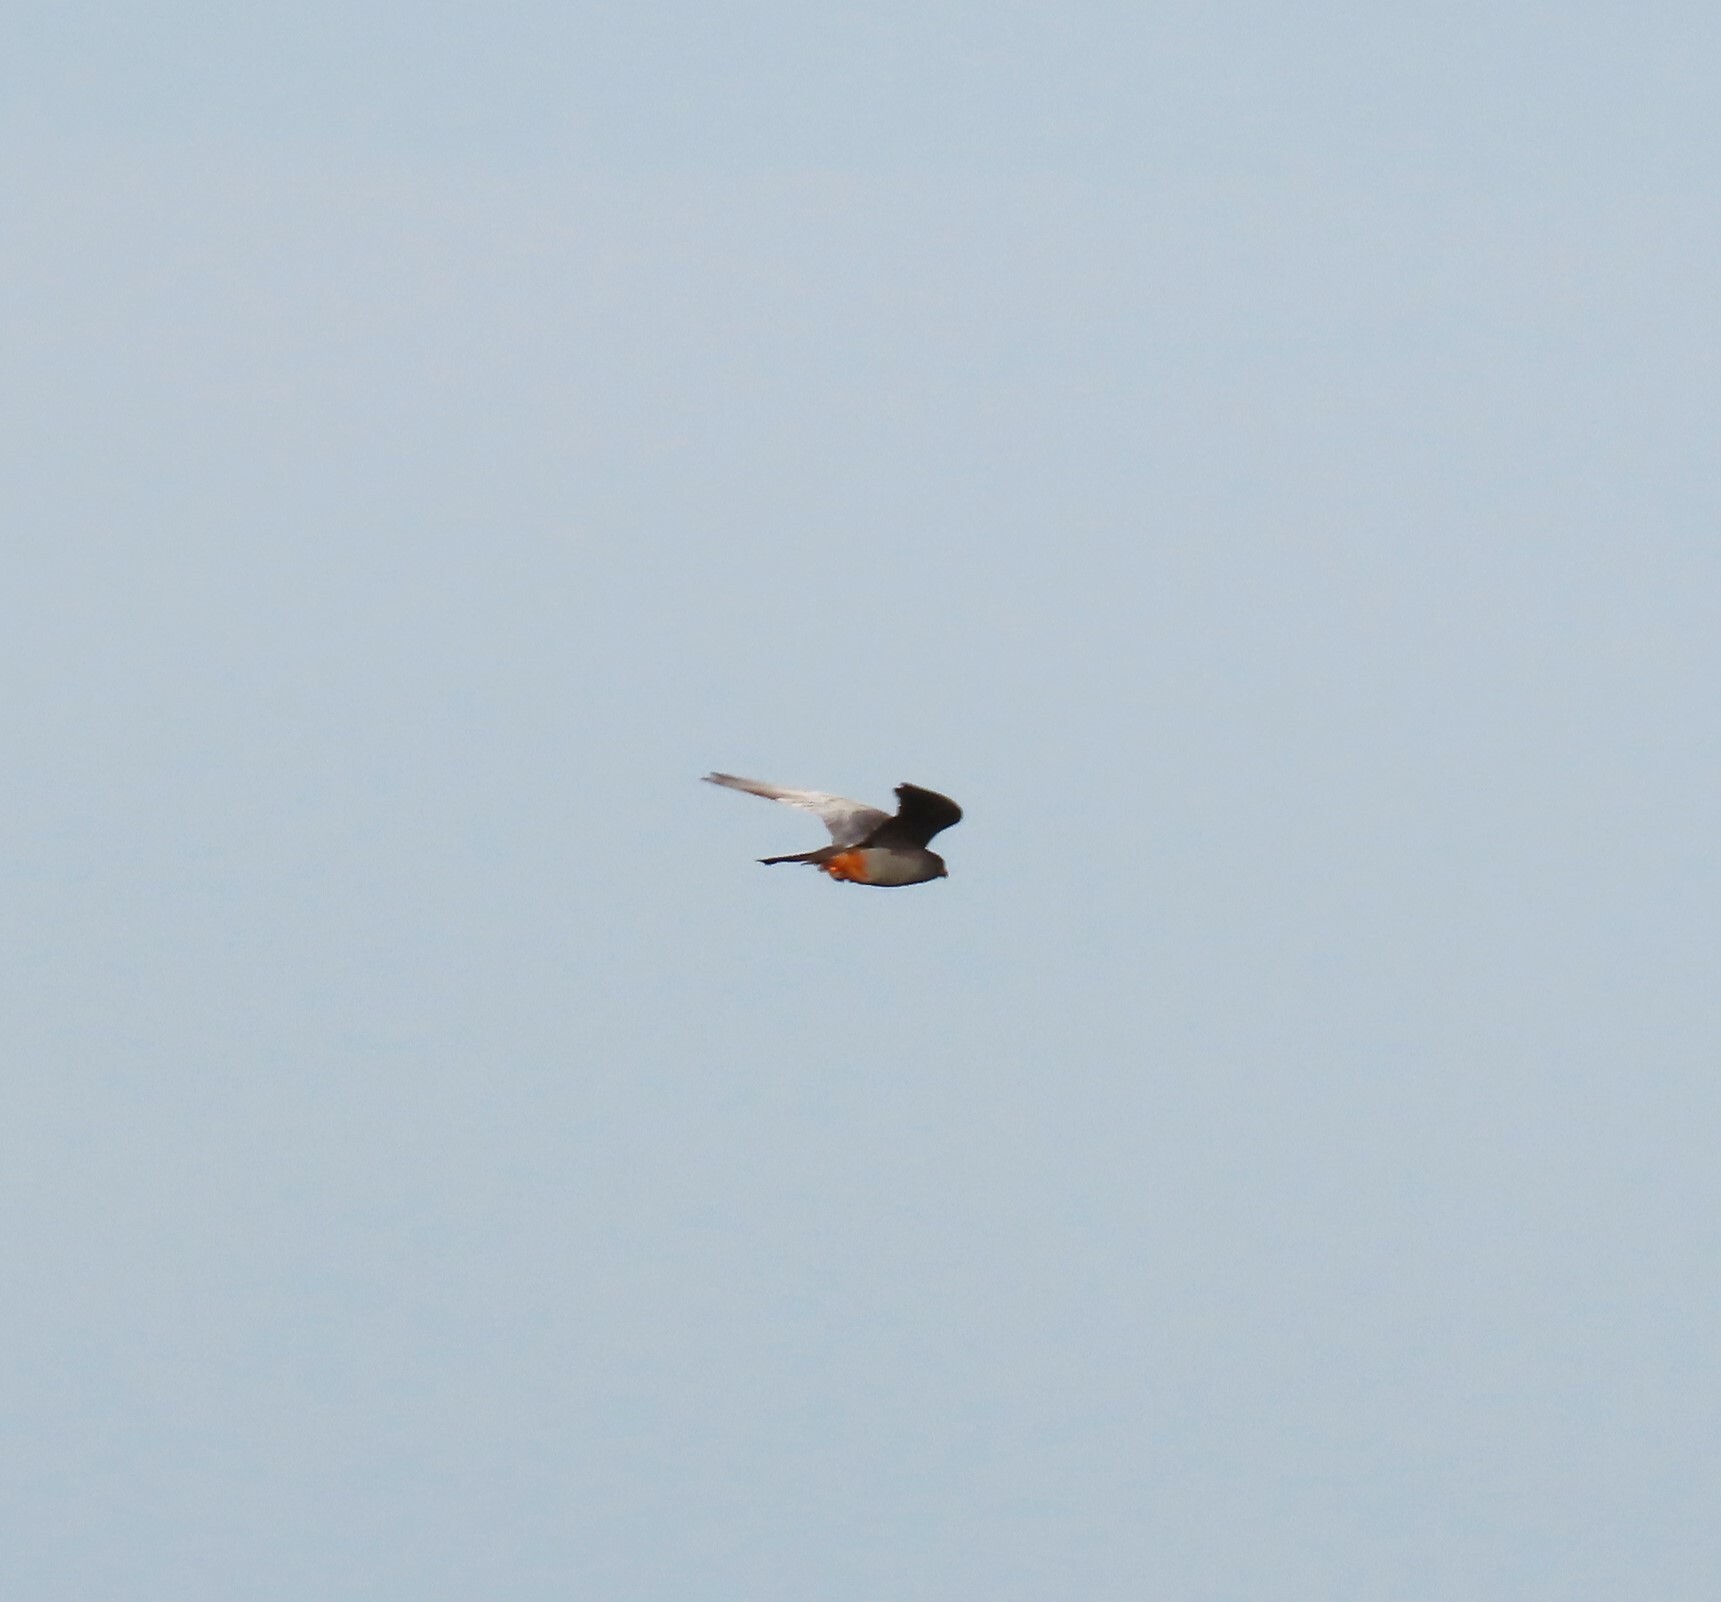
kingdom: Animalia
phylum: Chordata
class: Aves
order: Falconiformes
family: Falconidae
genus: Falco
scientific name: Falco vespertinus
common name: Red-footed falcon
